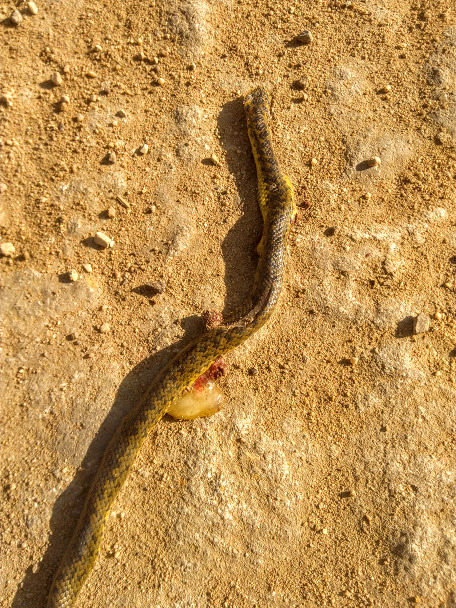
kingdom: Animalia
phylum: Chordata
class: Squamata
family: Colubridae
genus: Atractus
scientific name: Atractus crassicaudatus
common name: Thickhead ground snake
